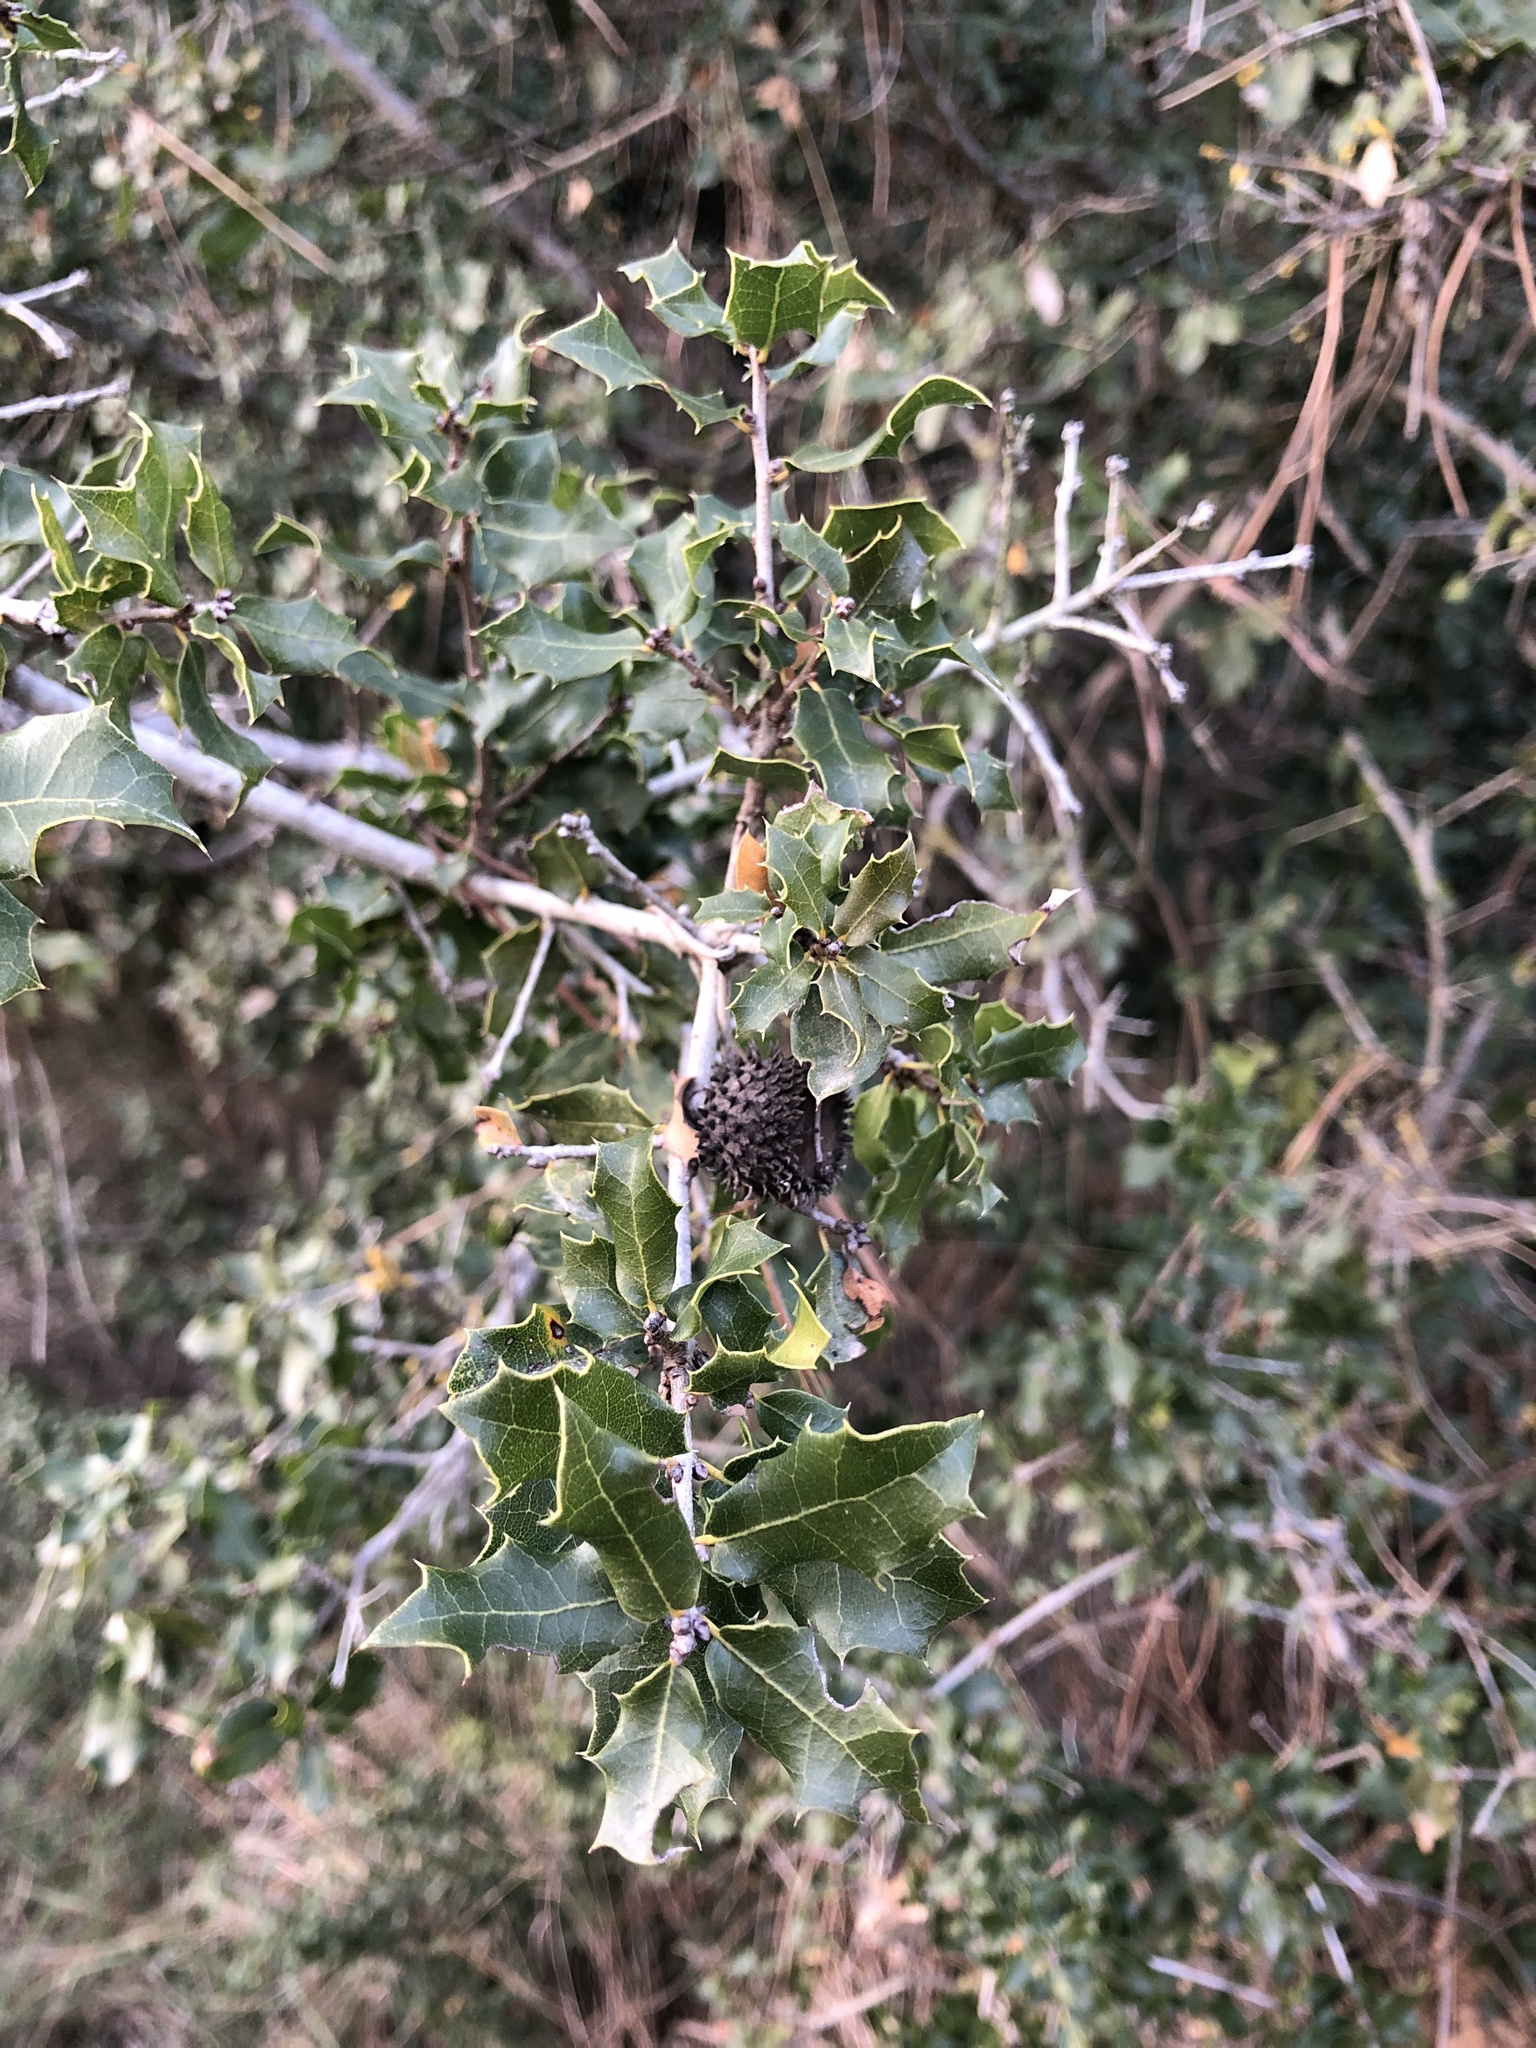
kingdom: Plantae
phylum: Tracheophyta
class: Magnoliopsida
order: Fagales
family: Fagaceae
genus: Quercus
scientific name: Quercus coccifera
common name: Kermes oak
